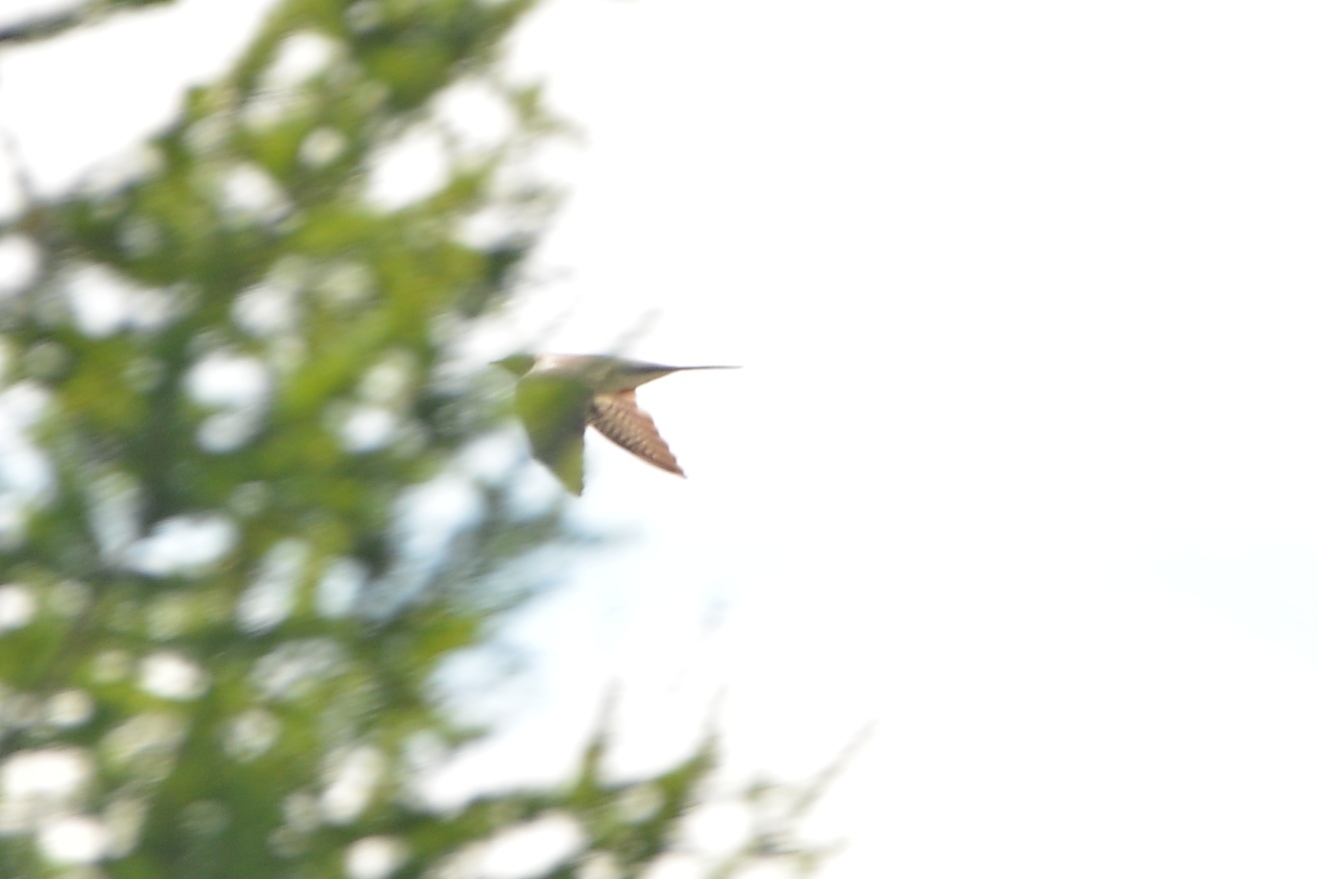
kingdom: Animalia
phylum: Chordata
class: Aves
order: Cuculiformes
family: Cuculidae
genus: Cuculus
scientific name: Cuculus canorus
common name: Common cuckoo
